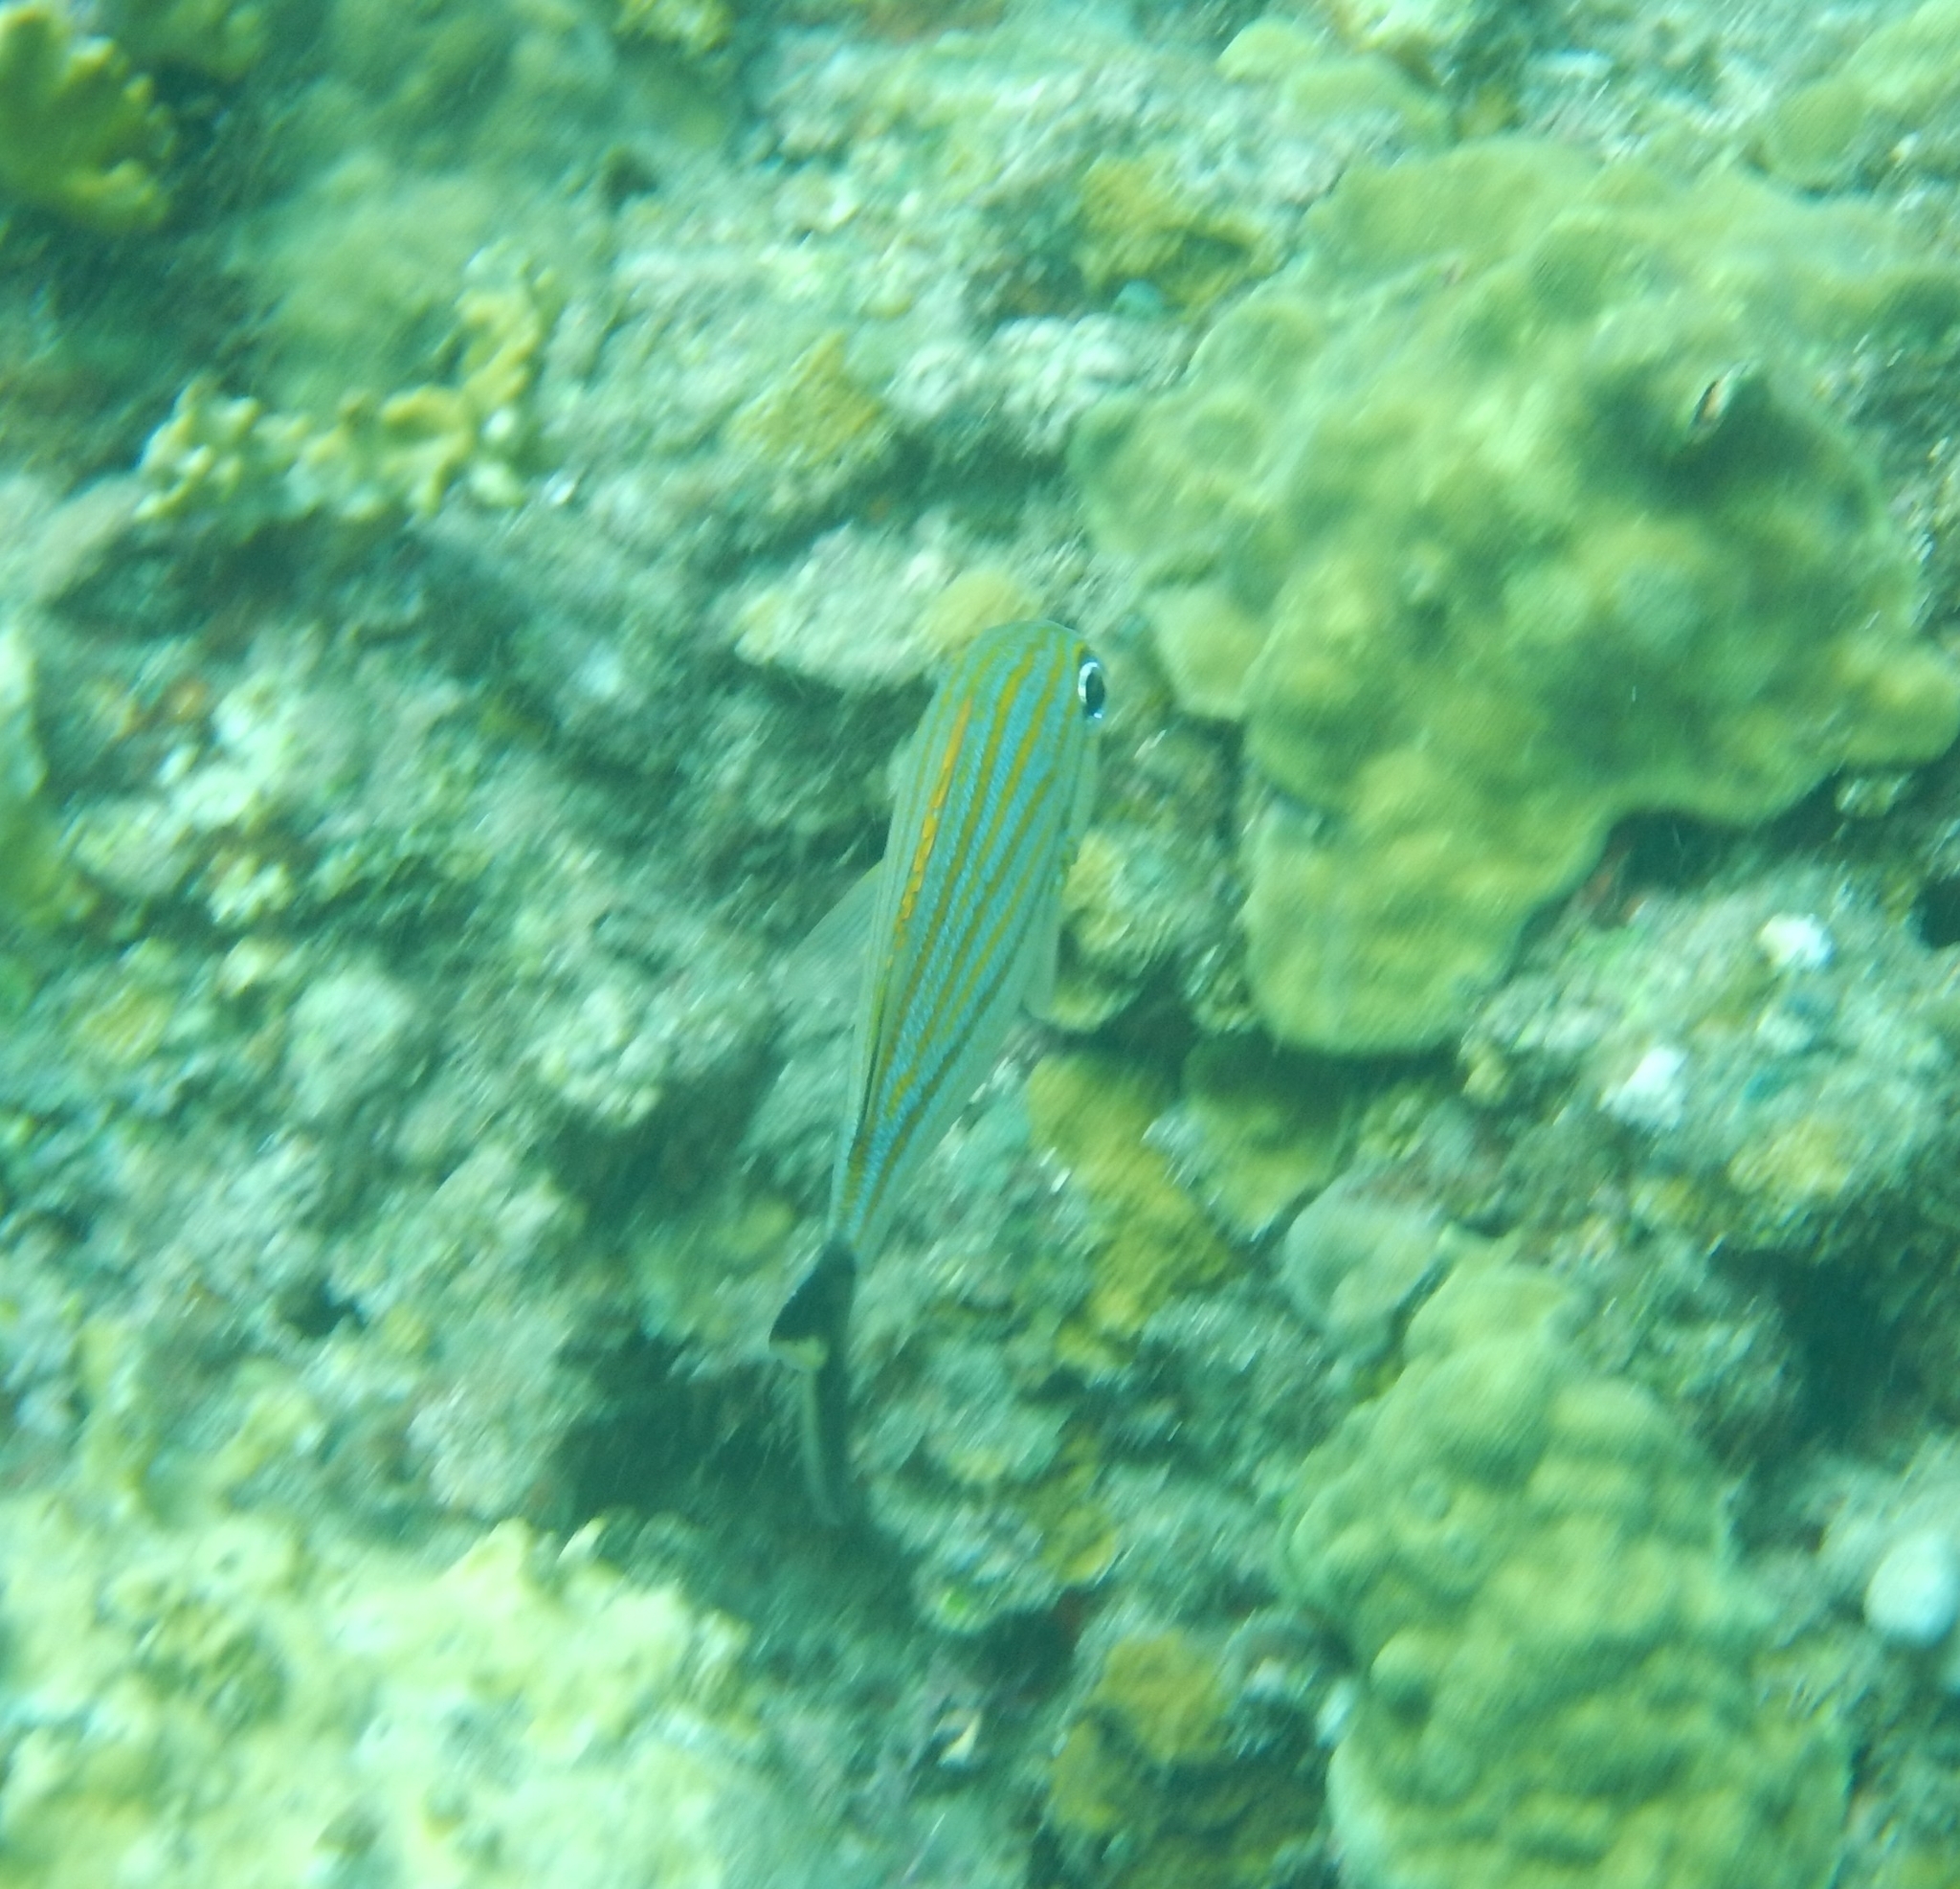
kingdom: Animalia
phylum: Chordata
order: Perciformes
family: Haemulidae
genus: Haemulon
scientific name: Haemulon carbonarium
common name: Caesar grunt
